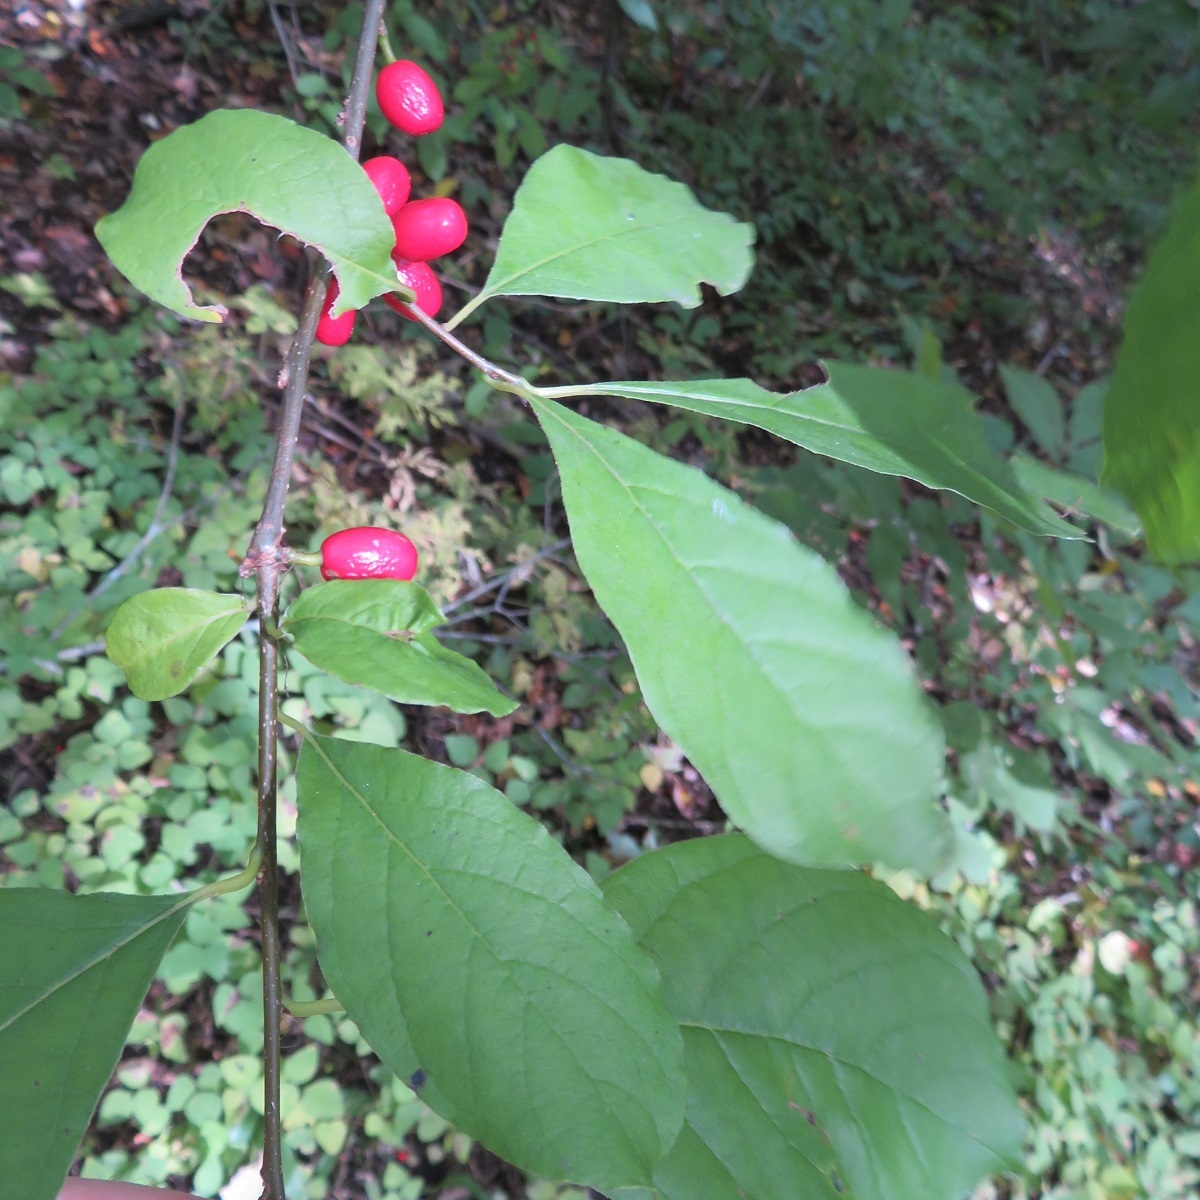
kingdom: Plantae
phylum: Tracheophyta
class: Magnoliopsida
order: Laurales
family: Lauraceae
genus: Lindera
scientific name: Lindera benzoin
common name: Spicebush
